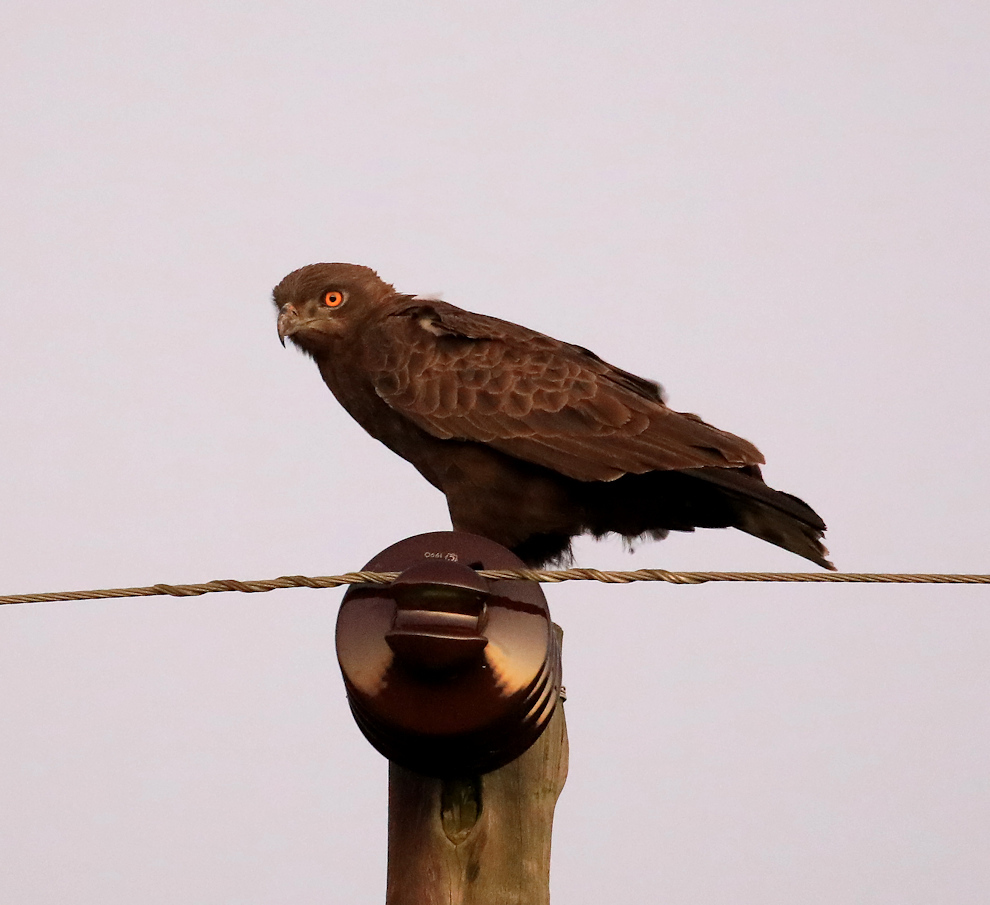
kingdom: Animalia
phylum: Chordata
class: Aves
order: Accipitriformes
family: Accipitridae
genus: Circaetus
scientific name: Circaetus cinereus
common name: Brown snake eagle
